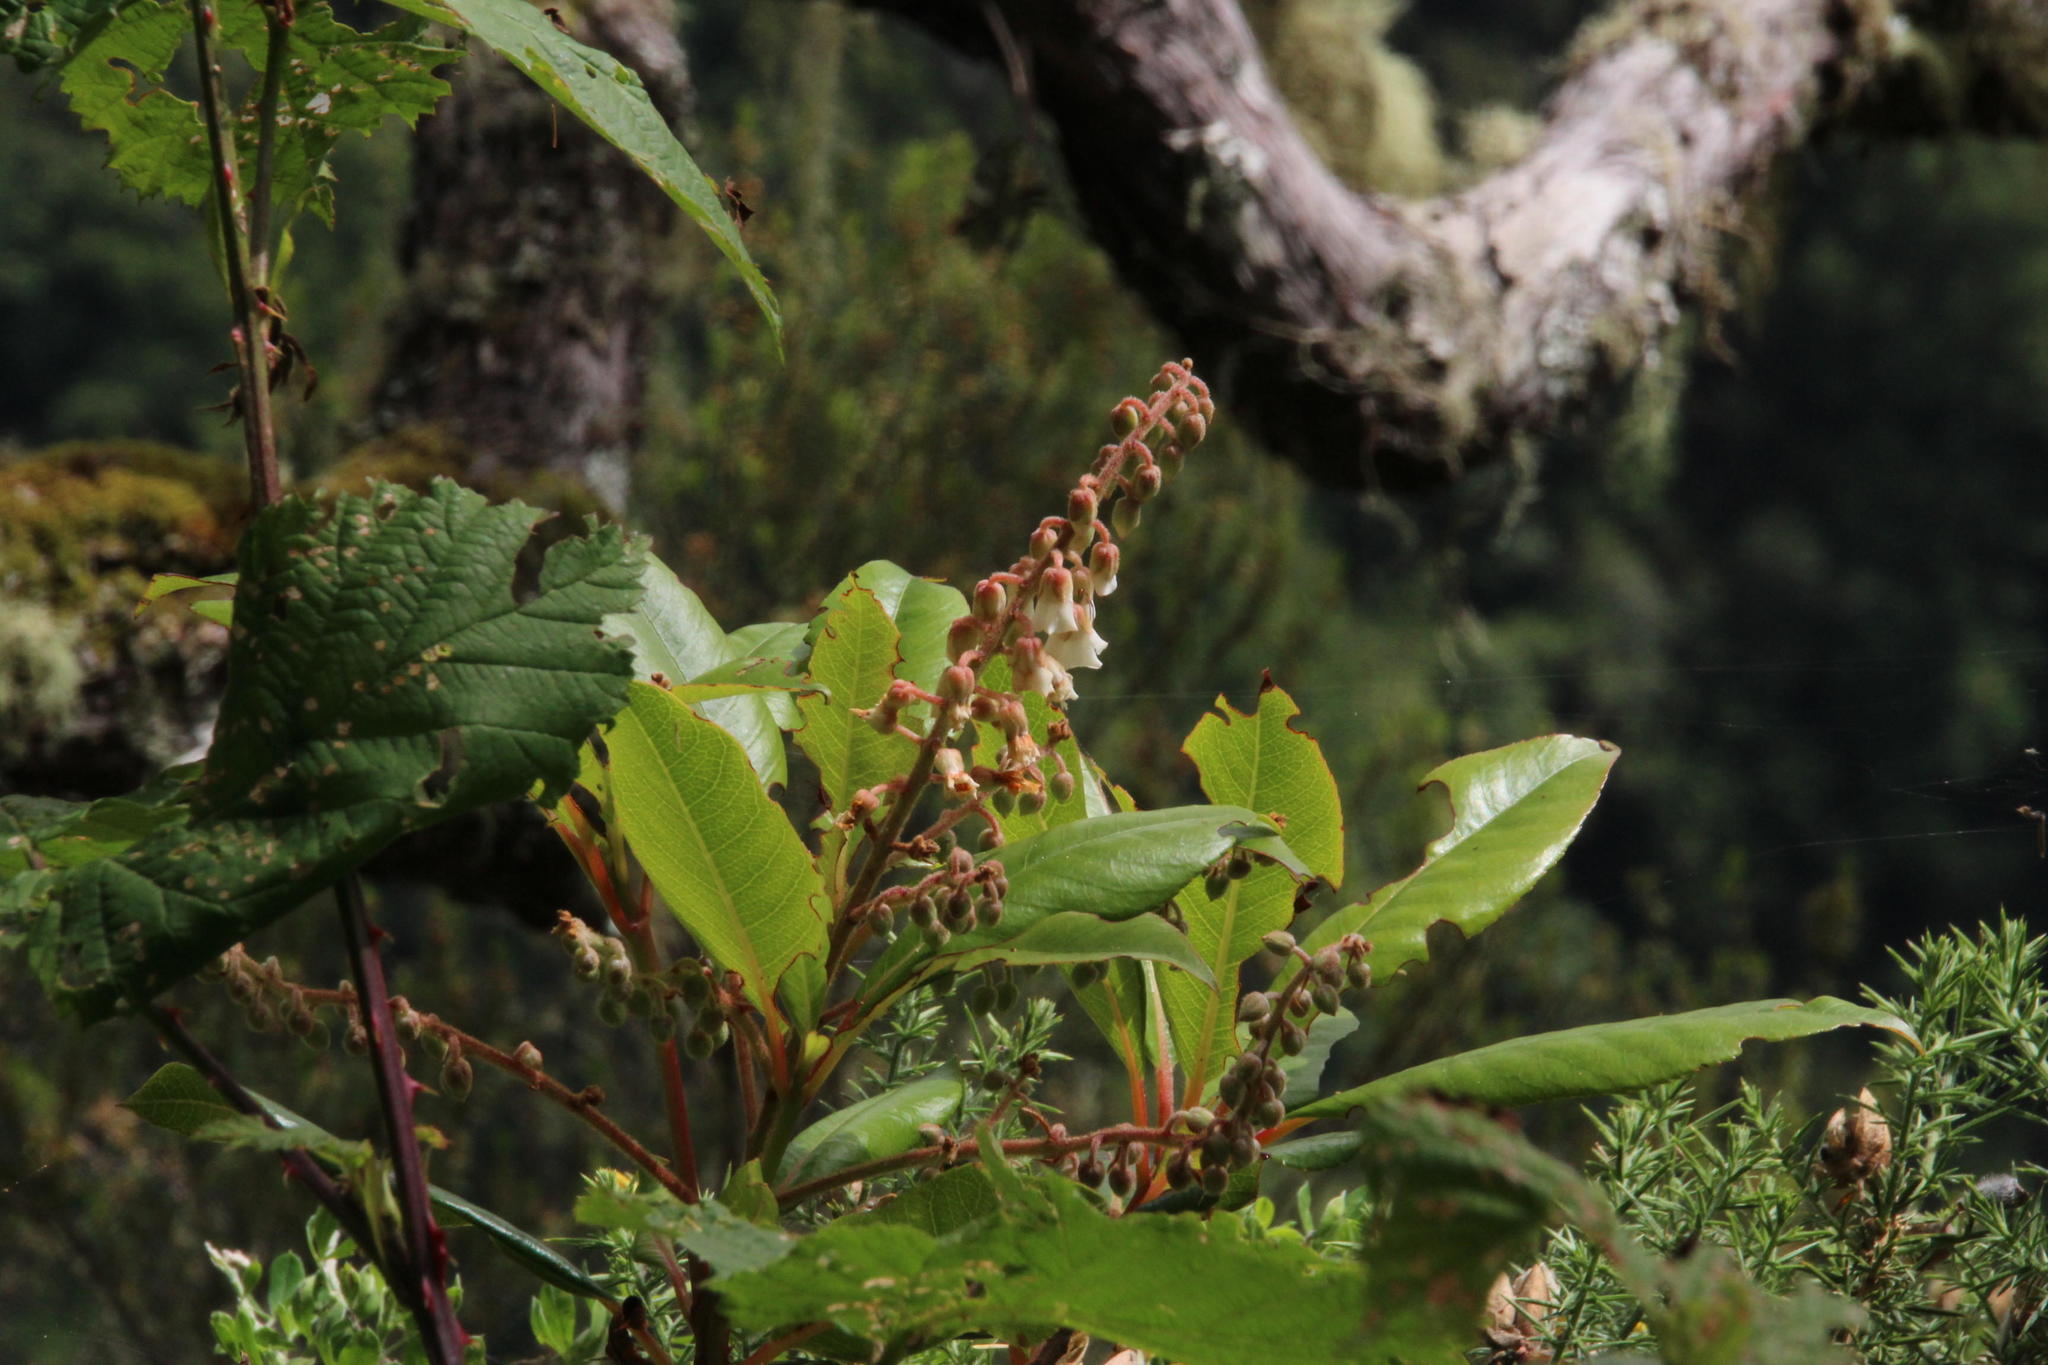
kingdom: Plantae
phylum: Tracheophyta
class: Magnoliopsida
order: Ericales
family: Clethraceae
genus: Clethra
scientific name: Clethra arborea
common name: Lily-of-the-valley-tree
